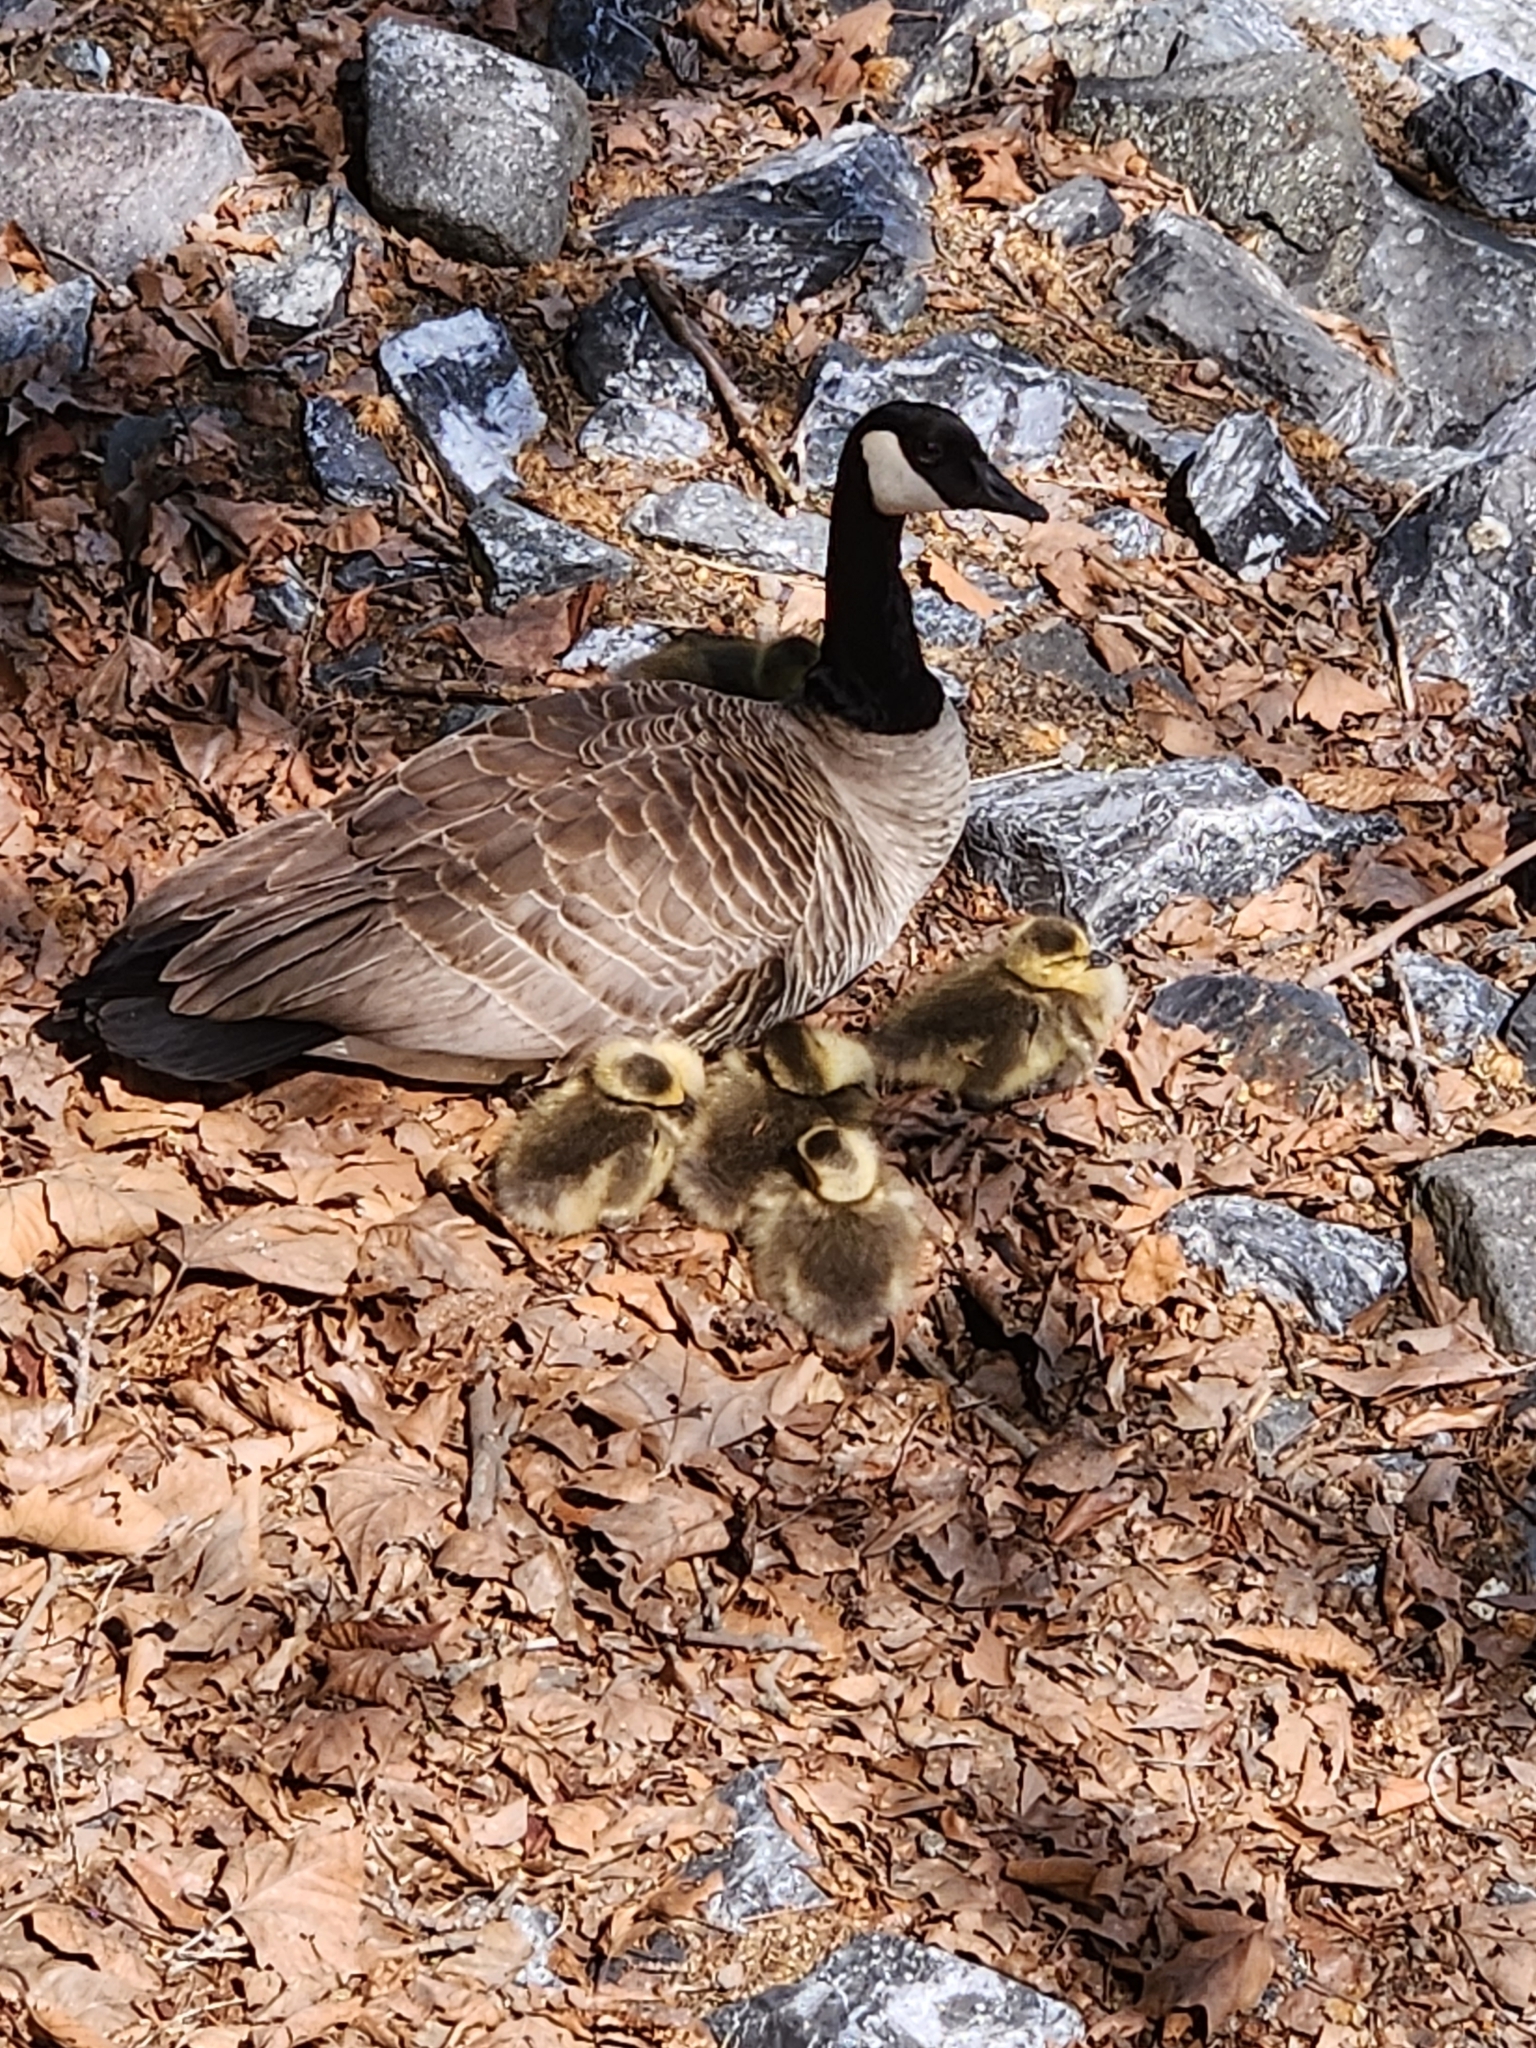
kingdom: Animalia
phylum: Chordata
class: Aves
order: Anseriformes
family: Anatidae
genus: Branta
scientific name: Branta canadensis
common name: Canada goose
